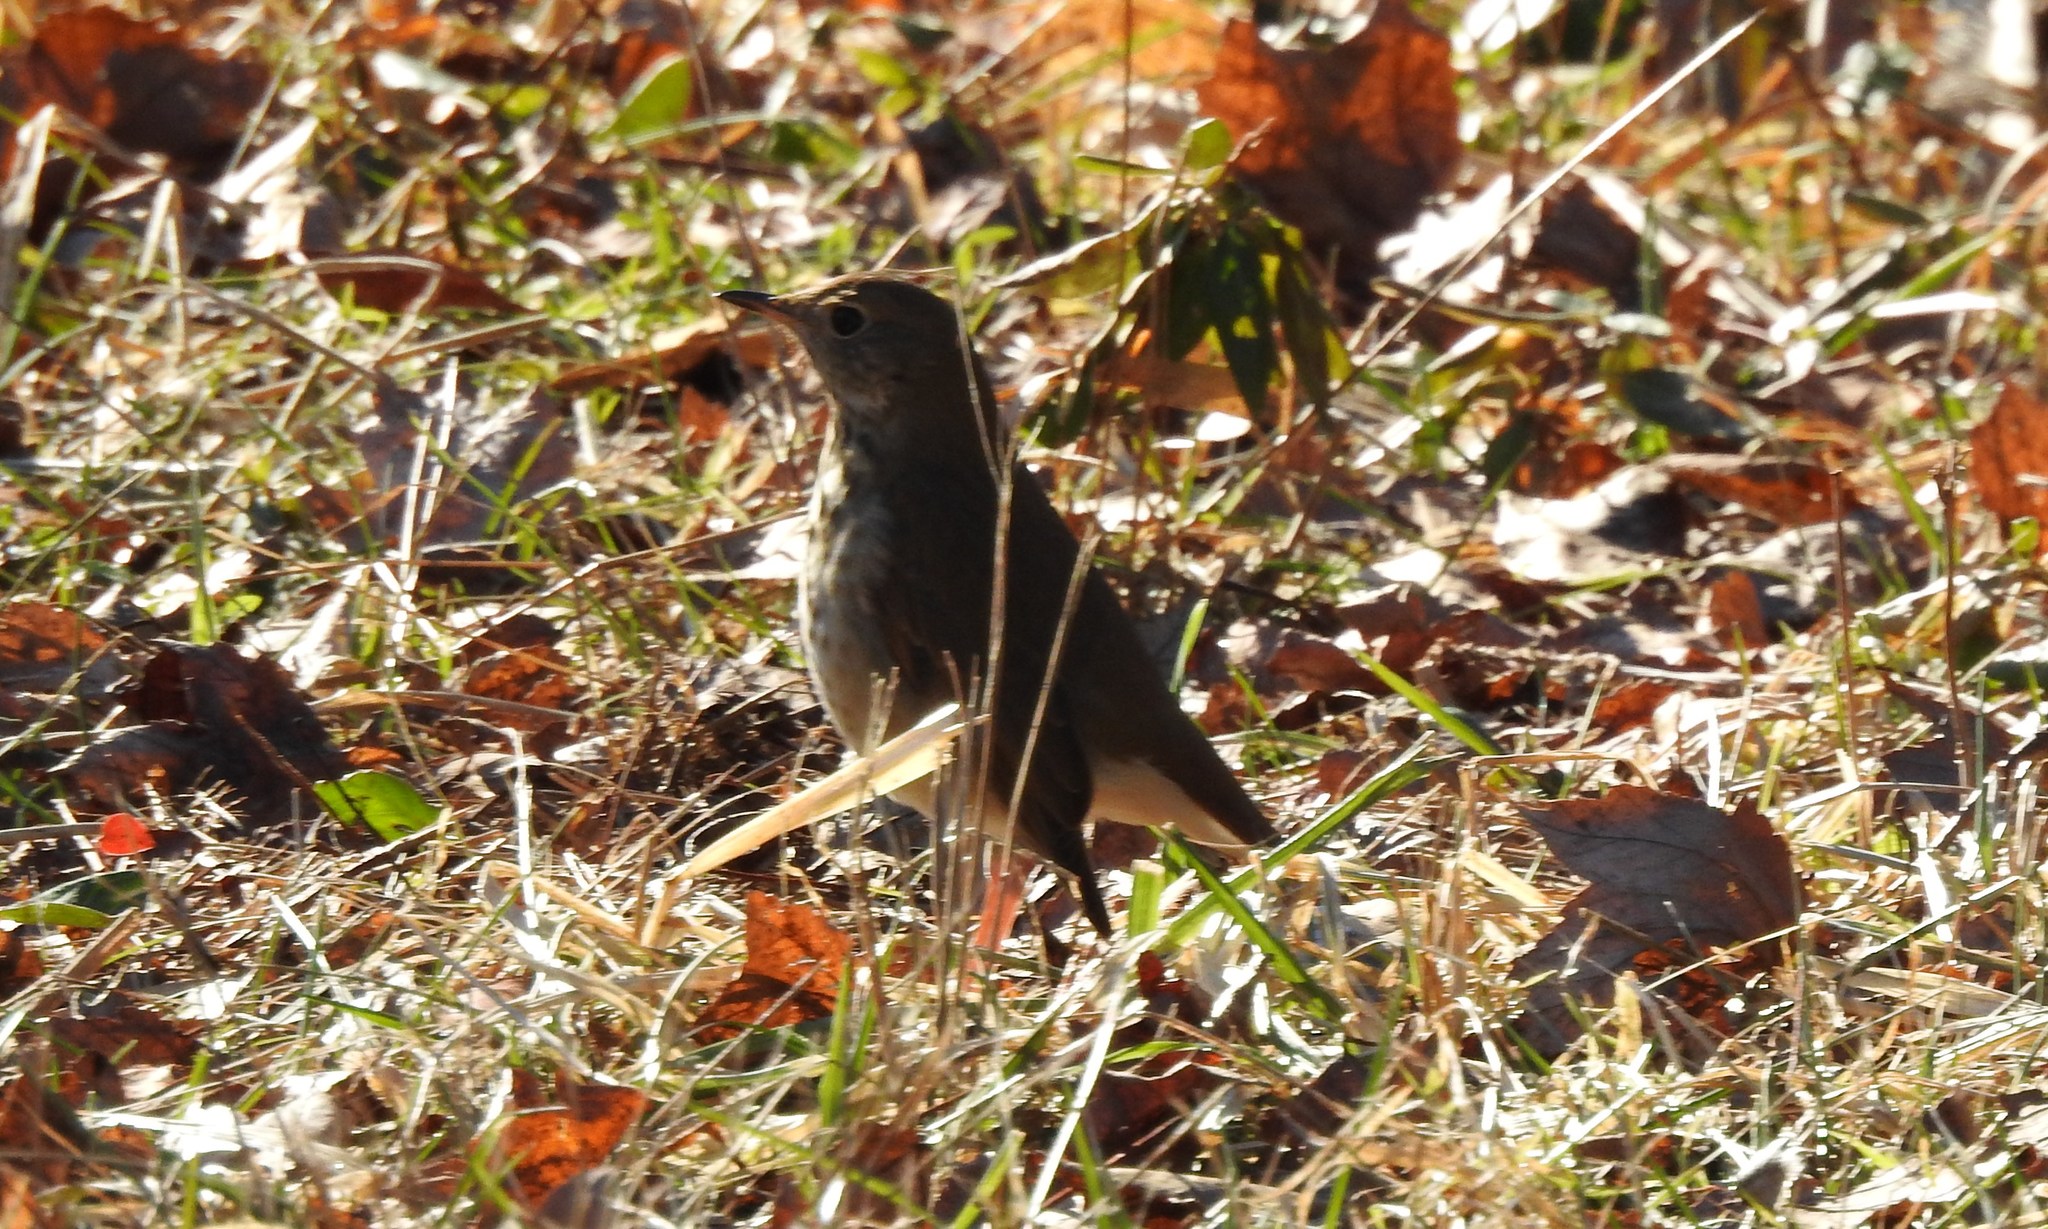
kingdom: Animalia
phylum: Chordata
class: Aves
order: Passeriformes
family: Turdidae
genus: Catharus
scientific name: Catharus guttatus
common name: Hermit thrush
